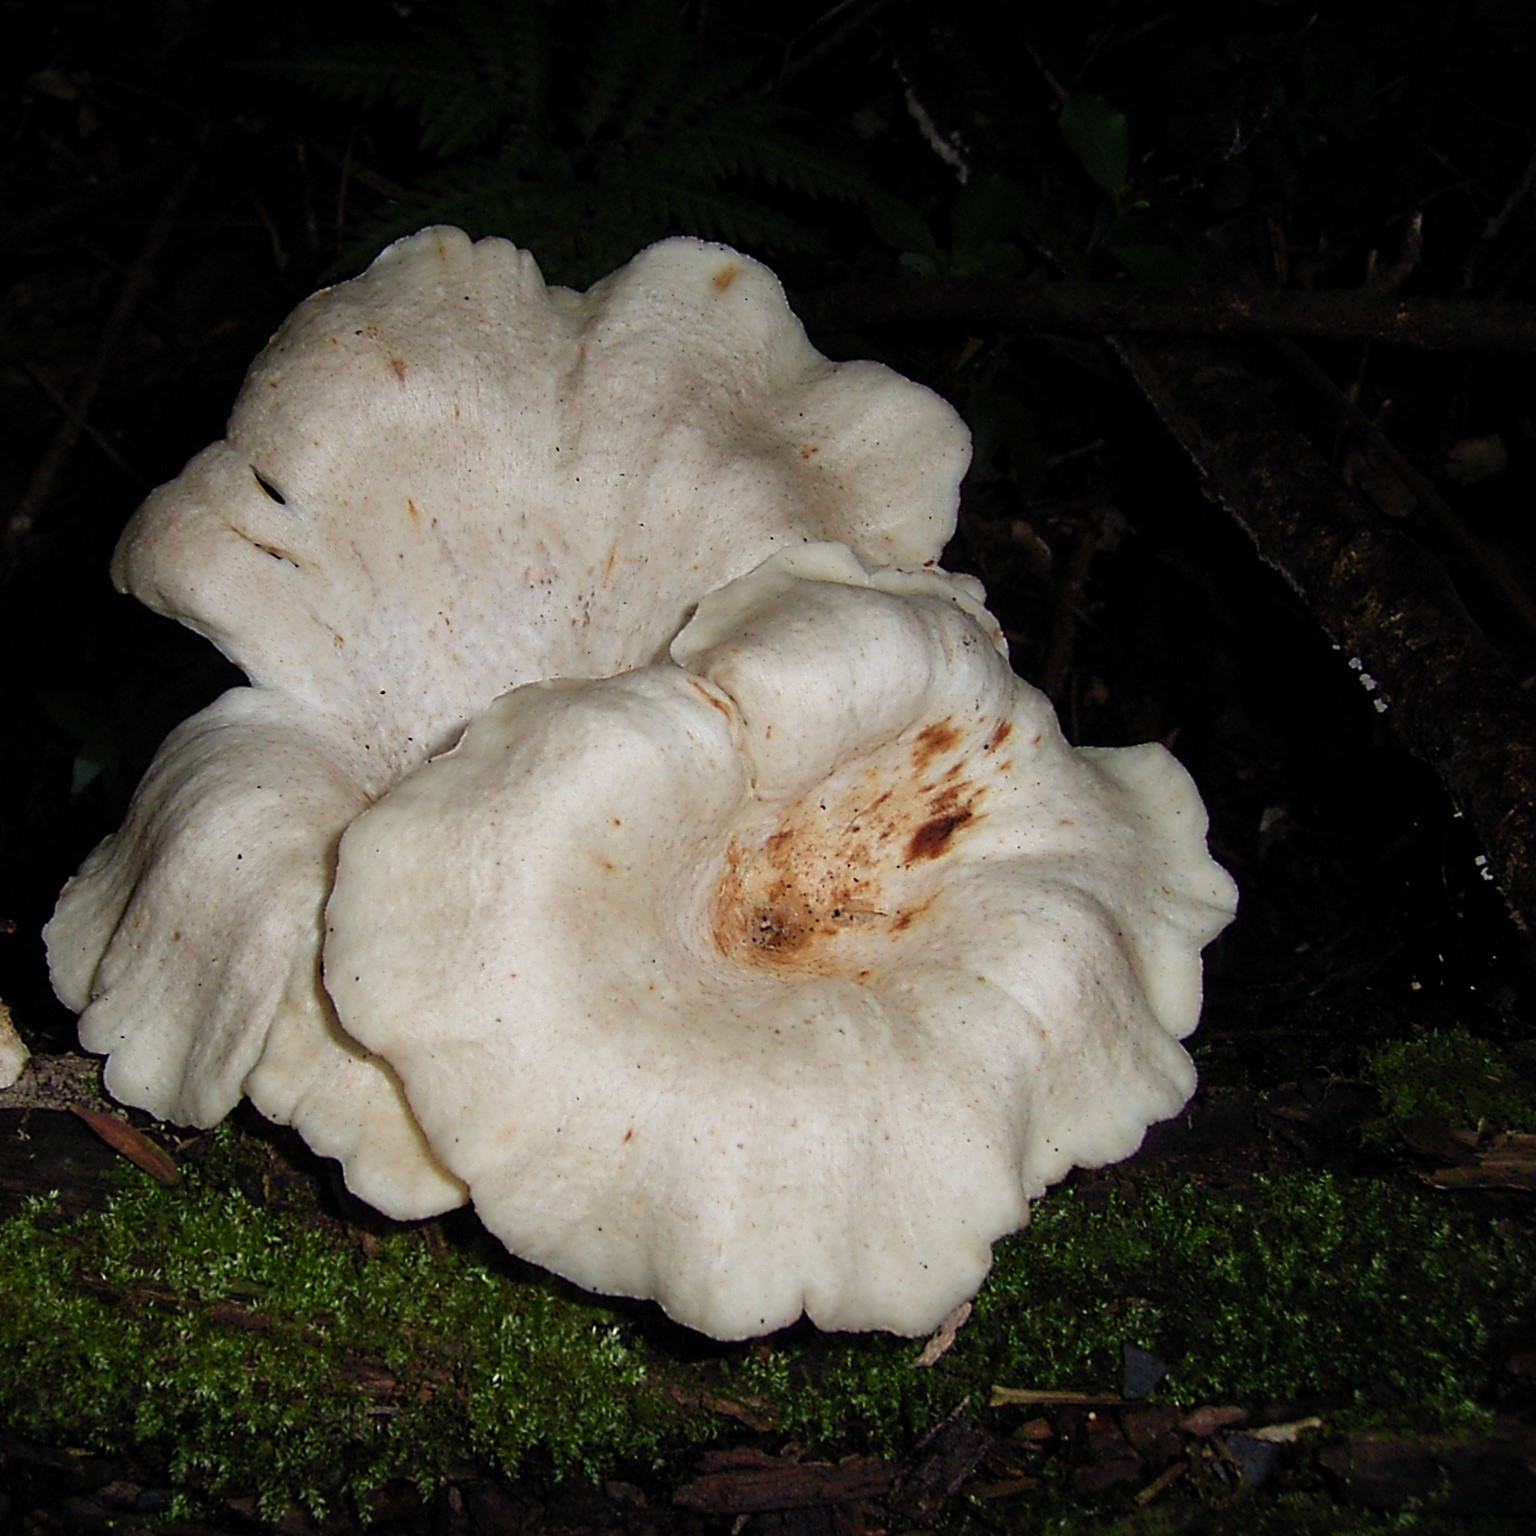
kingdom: Fungi
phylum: Basidiomycota
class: Agaricomycetes
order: Polyporales
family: Polyporaceae
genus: Lentinus
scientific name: Lentinus sajor-caju
